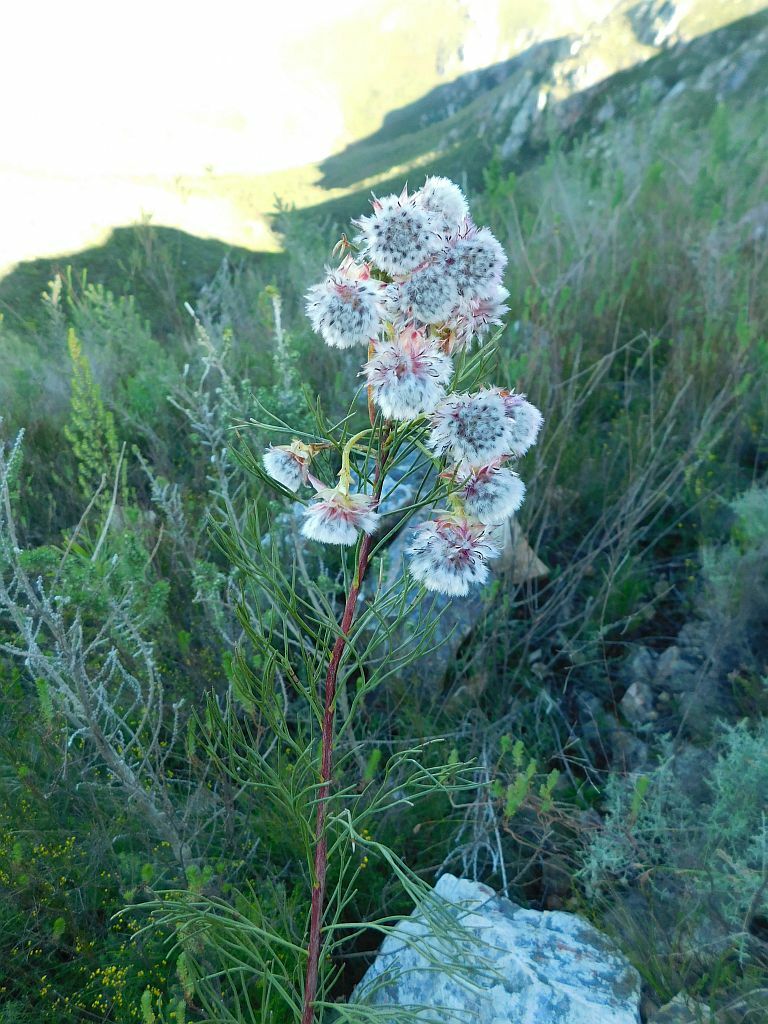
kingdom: Plantae
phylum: Tracheophyta
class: Magnoliopsida
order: Proteales
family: Proteaceae
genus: Serruria
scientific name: Serruria phylicoides
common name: Bearded spiderhead
